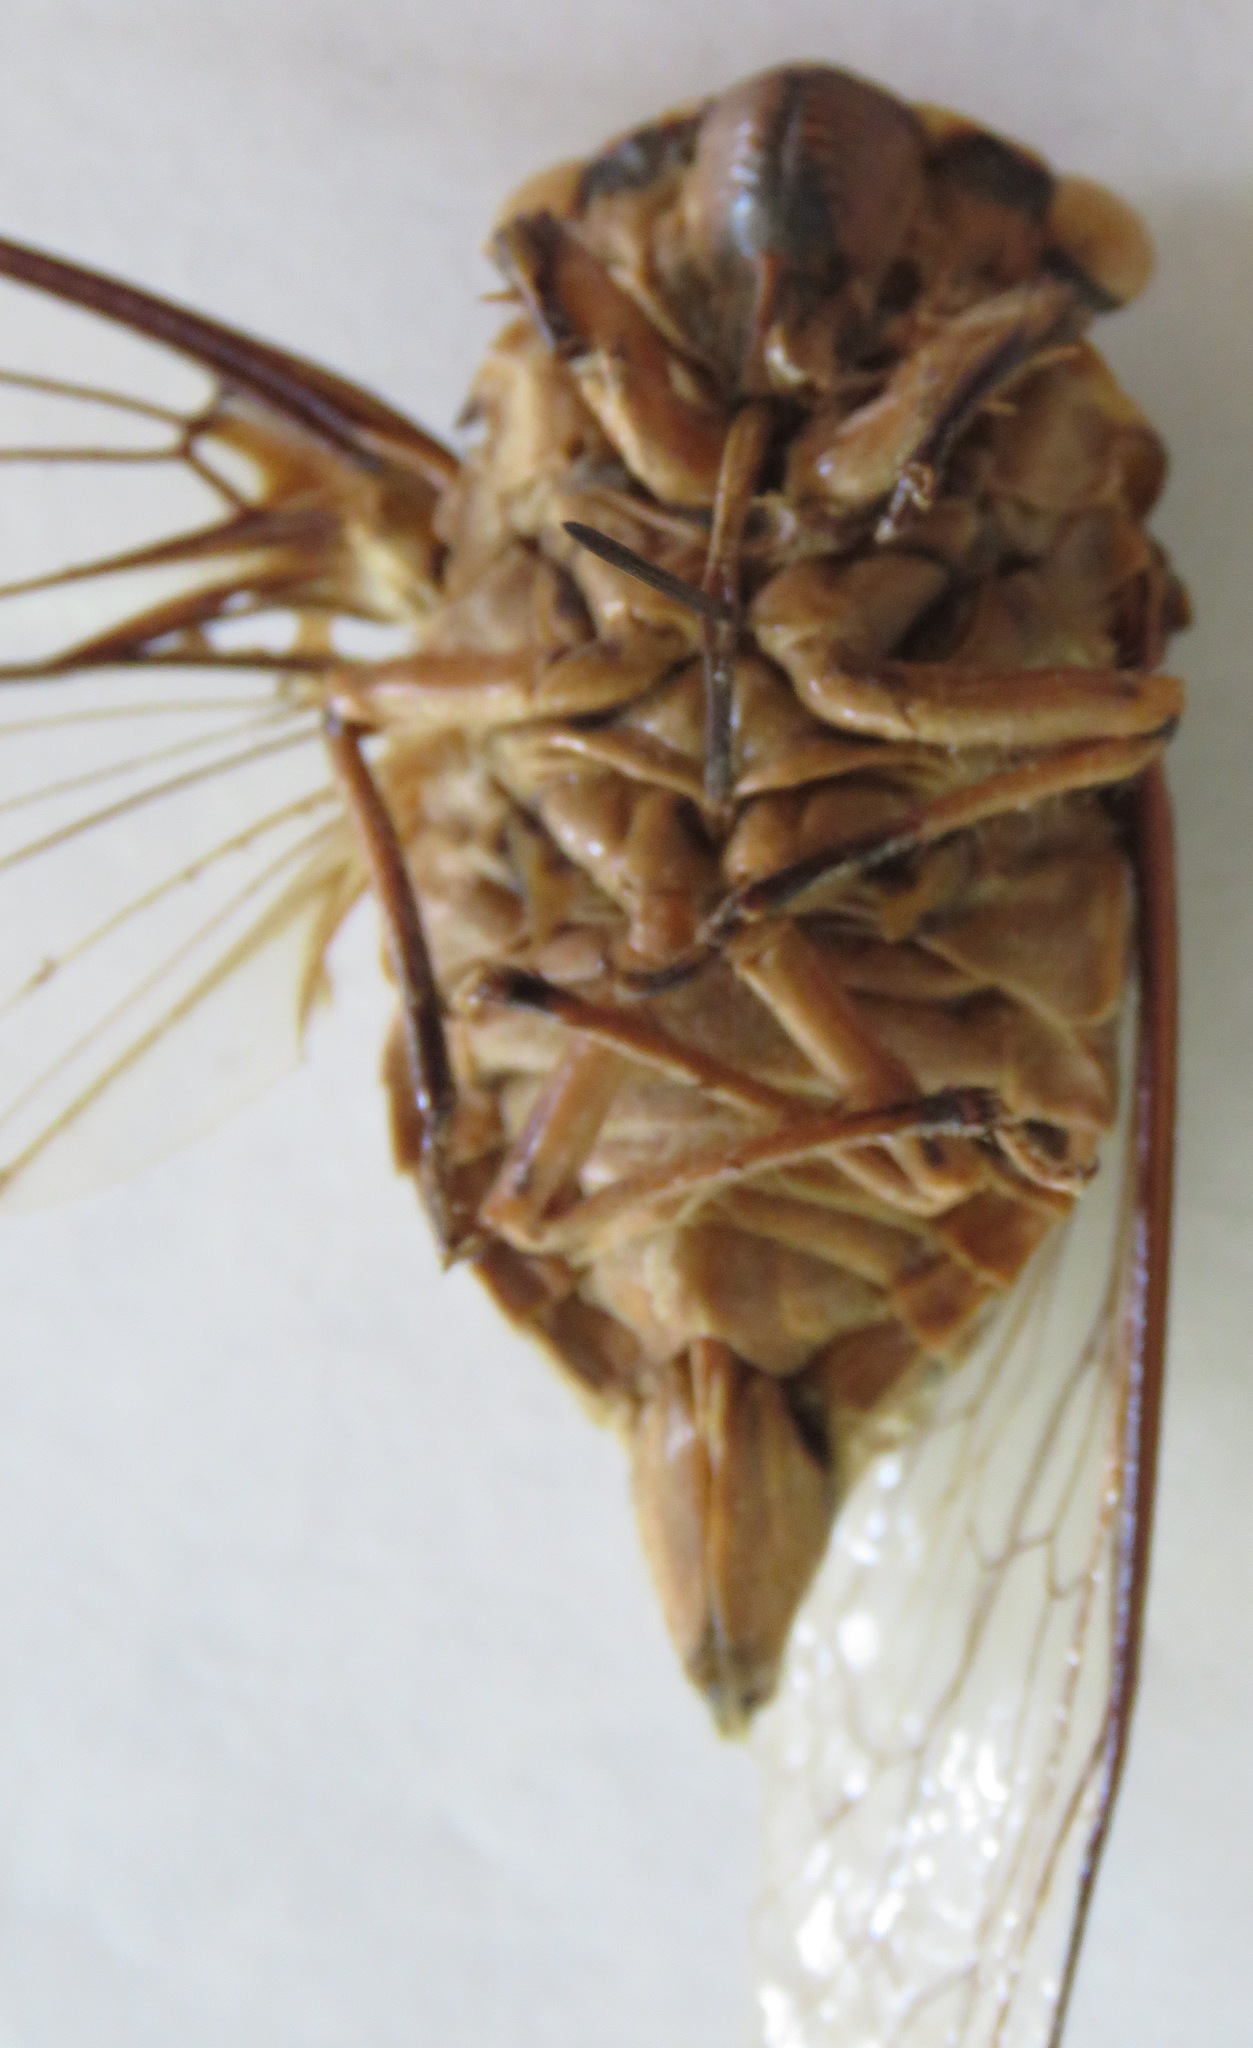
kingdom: Animalia
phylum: Arthropoda
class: Insecta
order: Hemiptera
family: Cicadidae
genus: Quesada
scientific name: Quesada gigas
